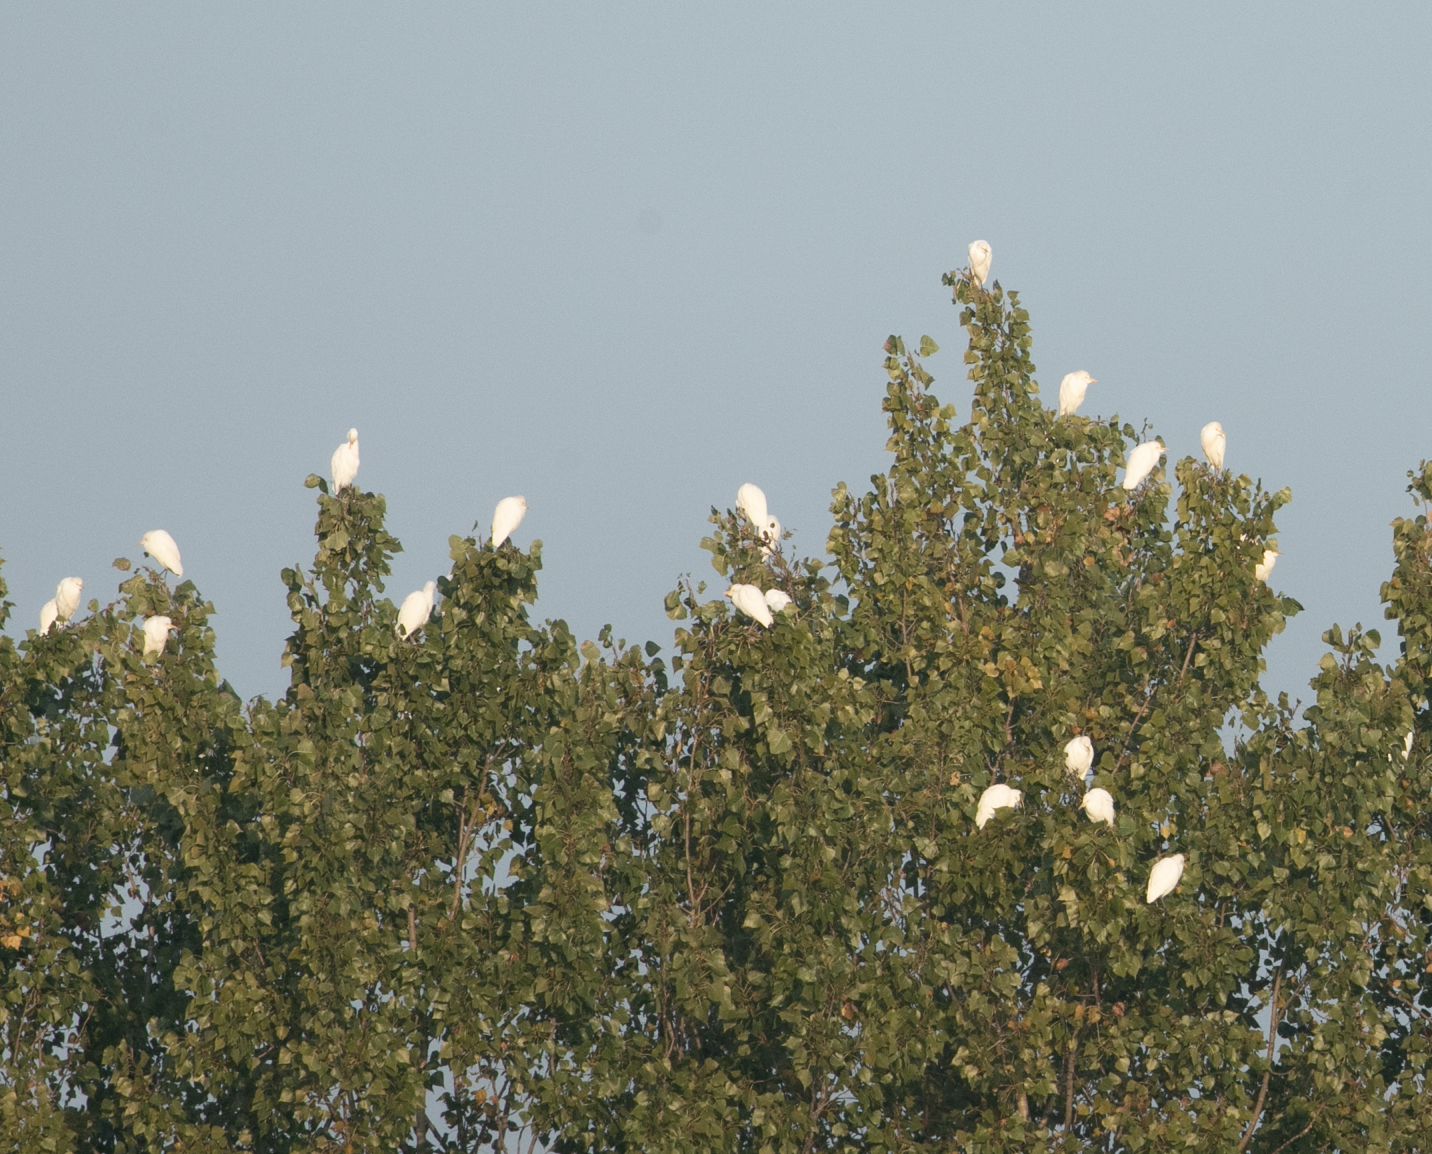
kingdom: Animalia
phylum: Chordata
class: Aves
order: Pelecaniformes
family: Ardeidae
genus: Bubulcus
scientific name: Bubulcus ibis
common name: Cattle egret
